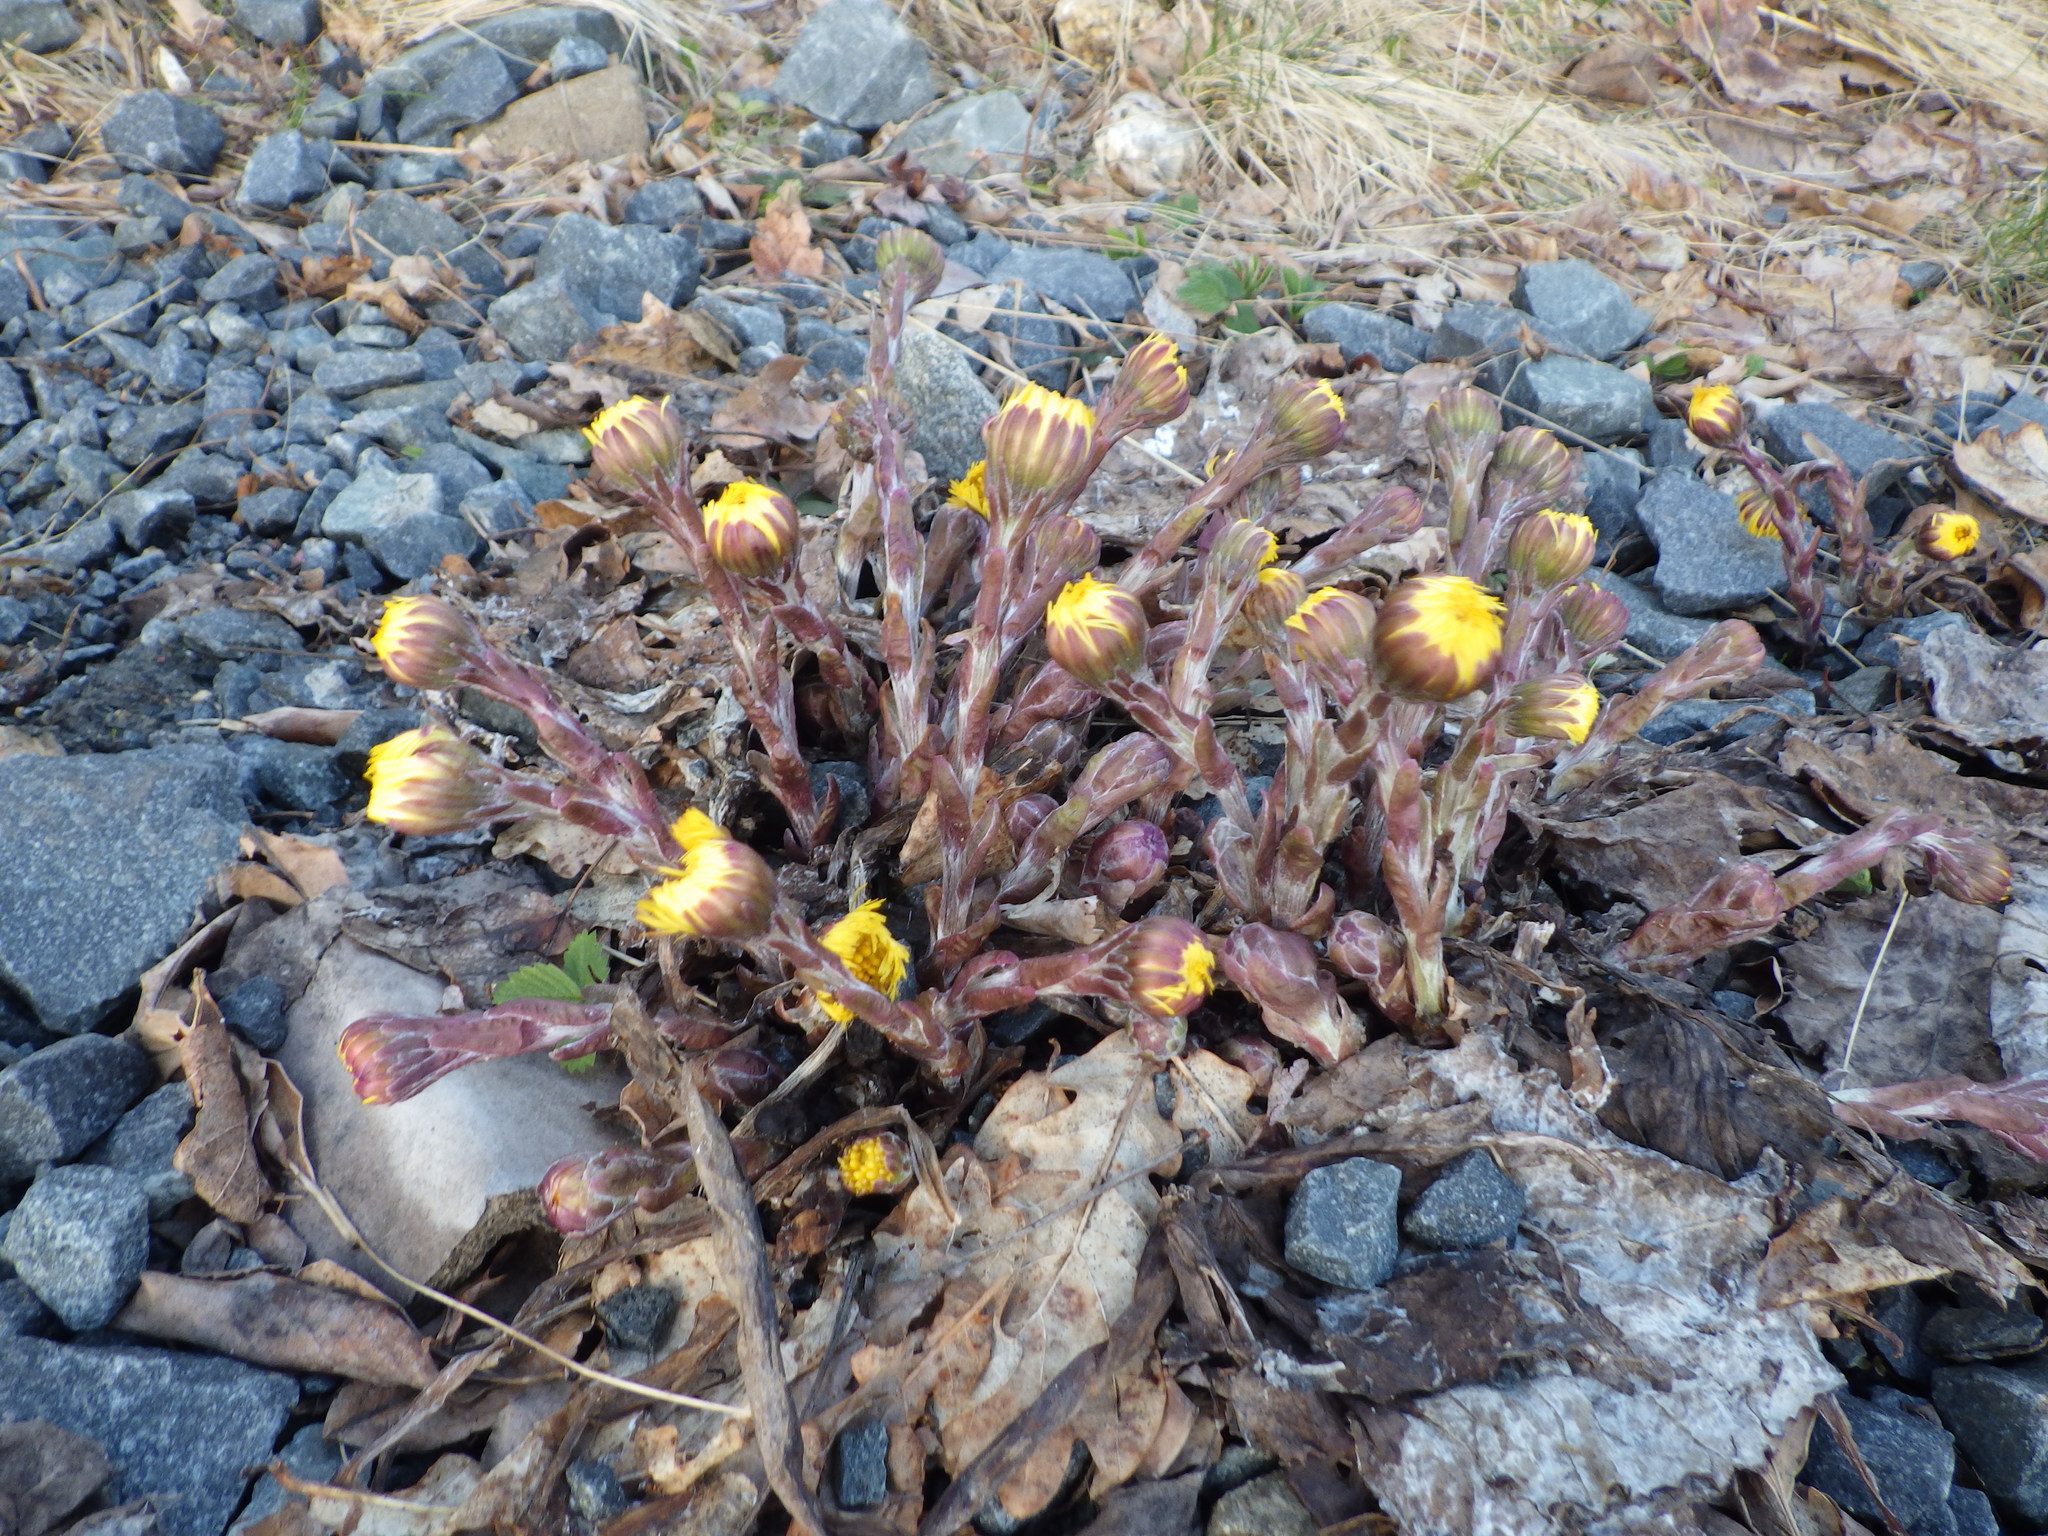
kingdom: Plantae
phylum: Tracheophyta
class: Magnoliopsida
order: Asterales
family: Asteraceae
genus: Tussilago
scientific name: Tussilago farfara
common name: Coltsfoot
